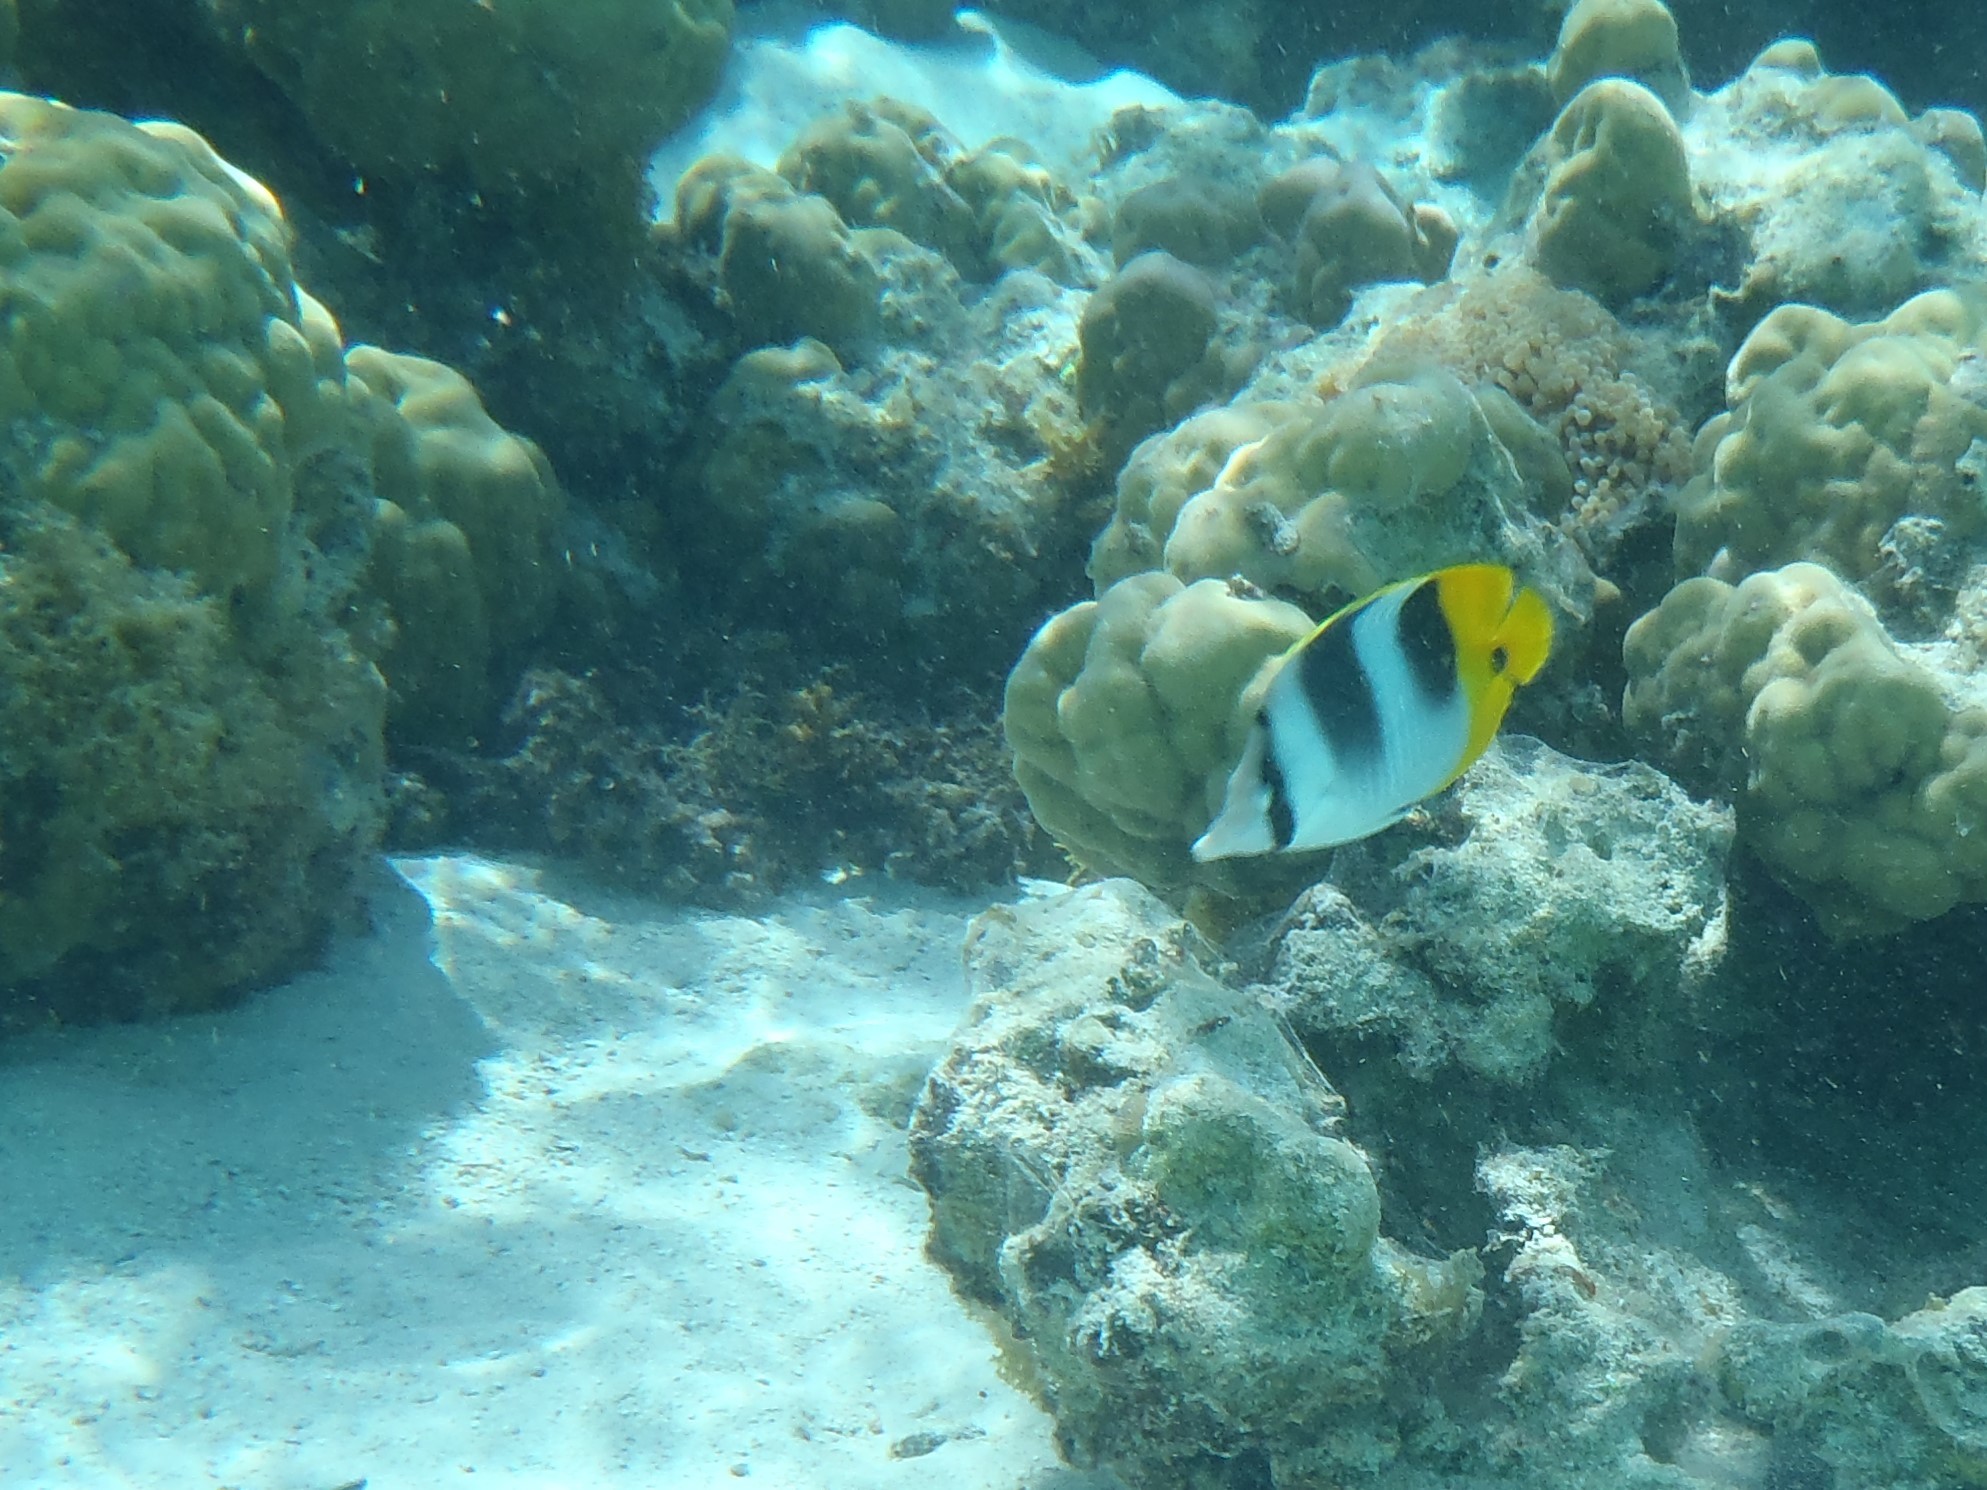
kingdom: Animalia
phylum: Chordata
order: Perciformes
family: Chaetodontidae
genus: Chaetodon
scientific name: Chaetodon ulietensis
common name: Pacific double-saddle butterflyfish
